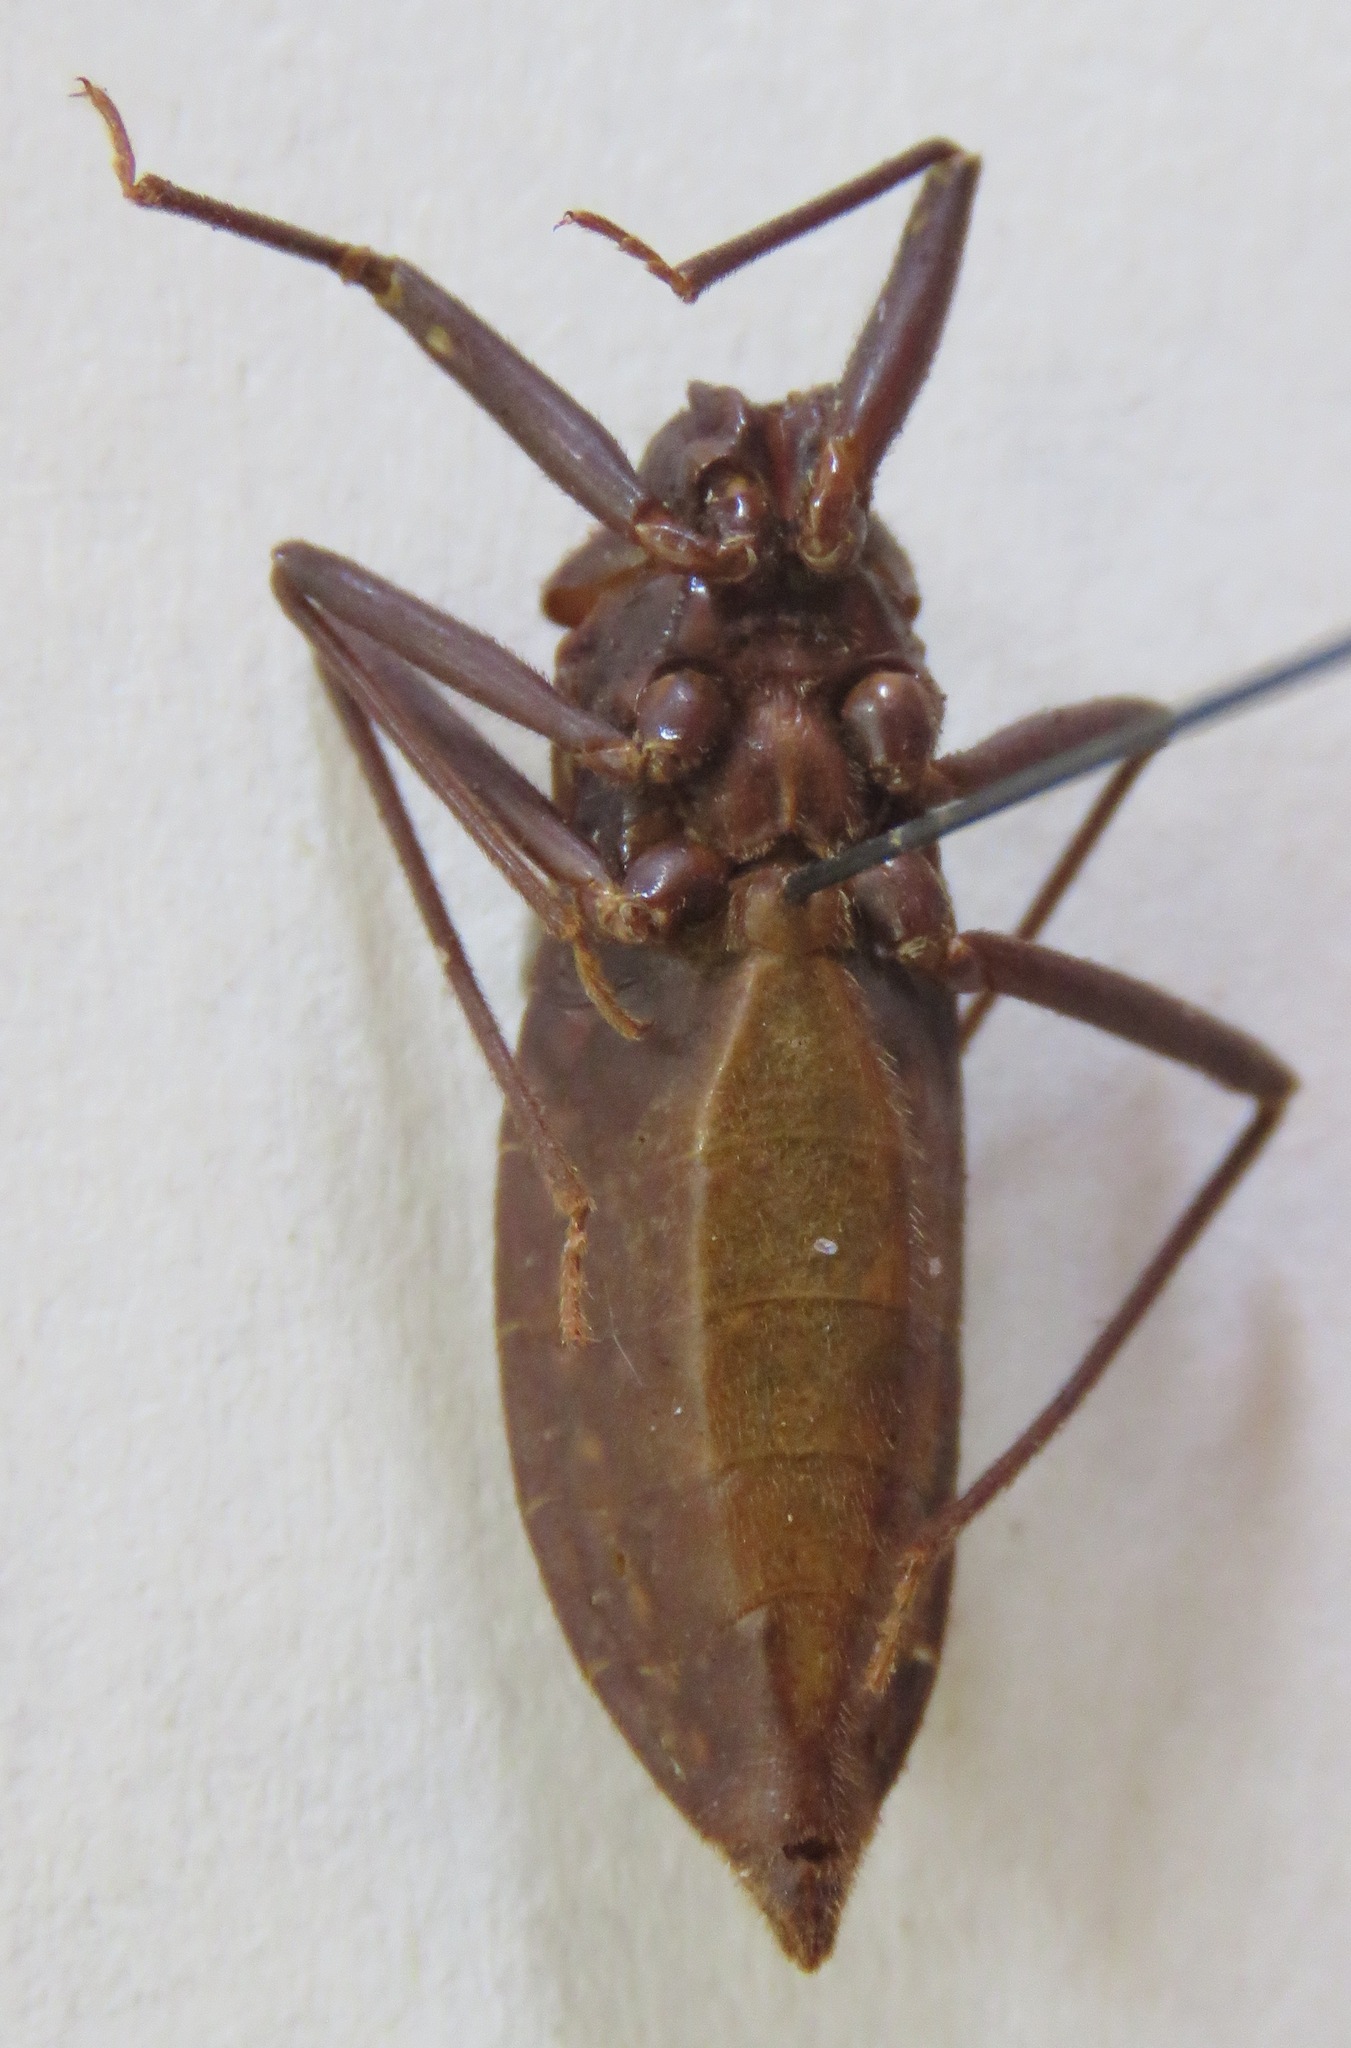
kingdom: Animalia
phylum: Arthropoda
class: Insecta
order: Hemiptera
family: Reduviidae
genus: Eratyrus
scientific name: Eratyrus cuspidatus
